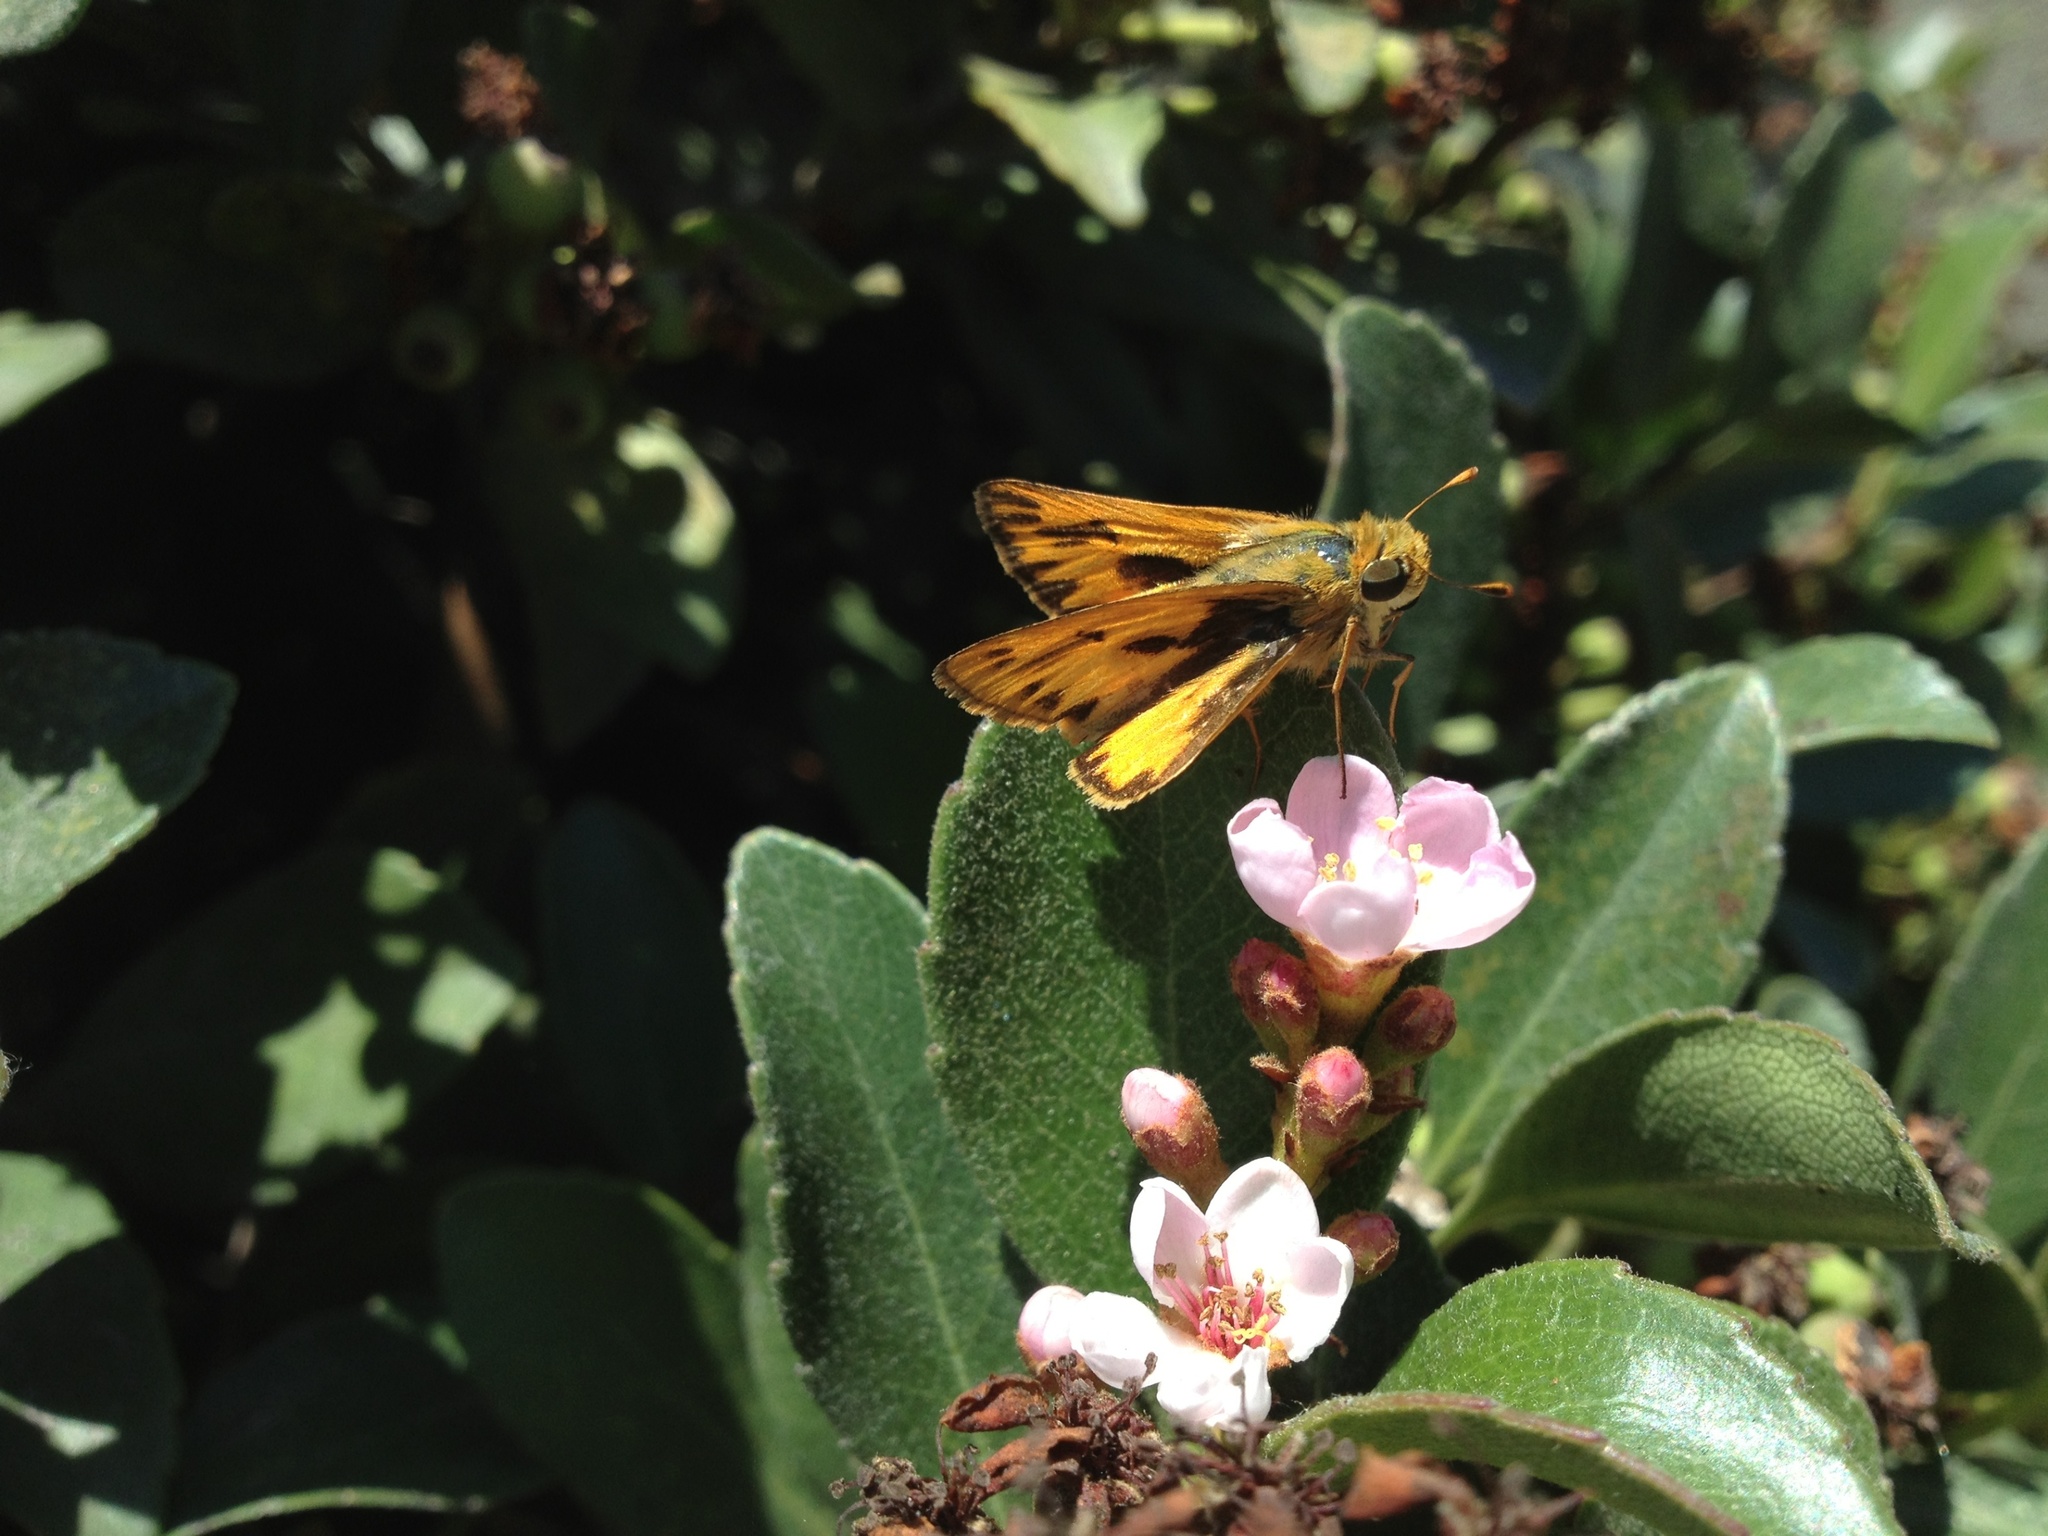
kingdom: Animalia
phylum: Arthropoda
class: Insecta
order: Lepidoptera
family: Hesperiidae
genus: Hylephila
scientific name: Hylephila phyleus
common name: Fiery skipper
